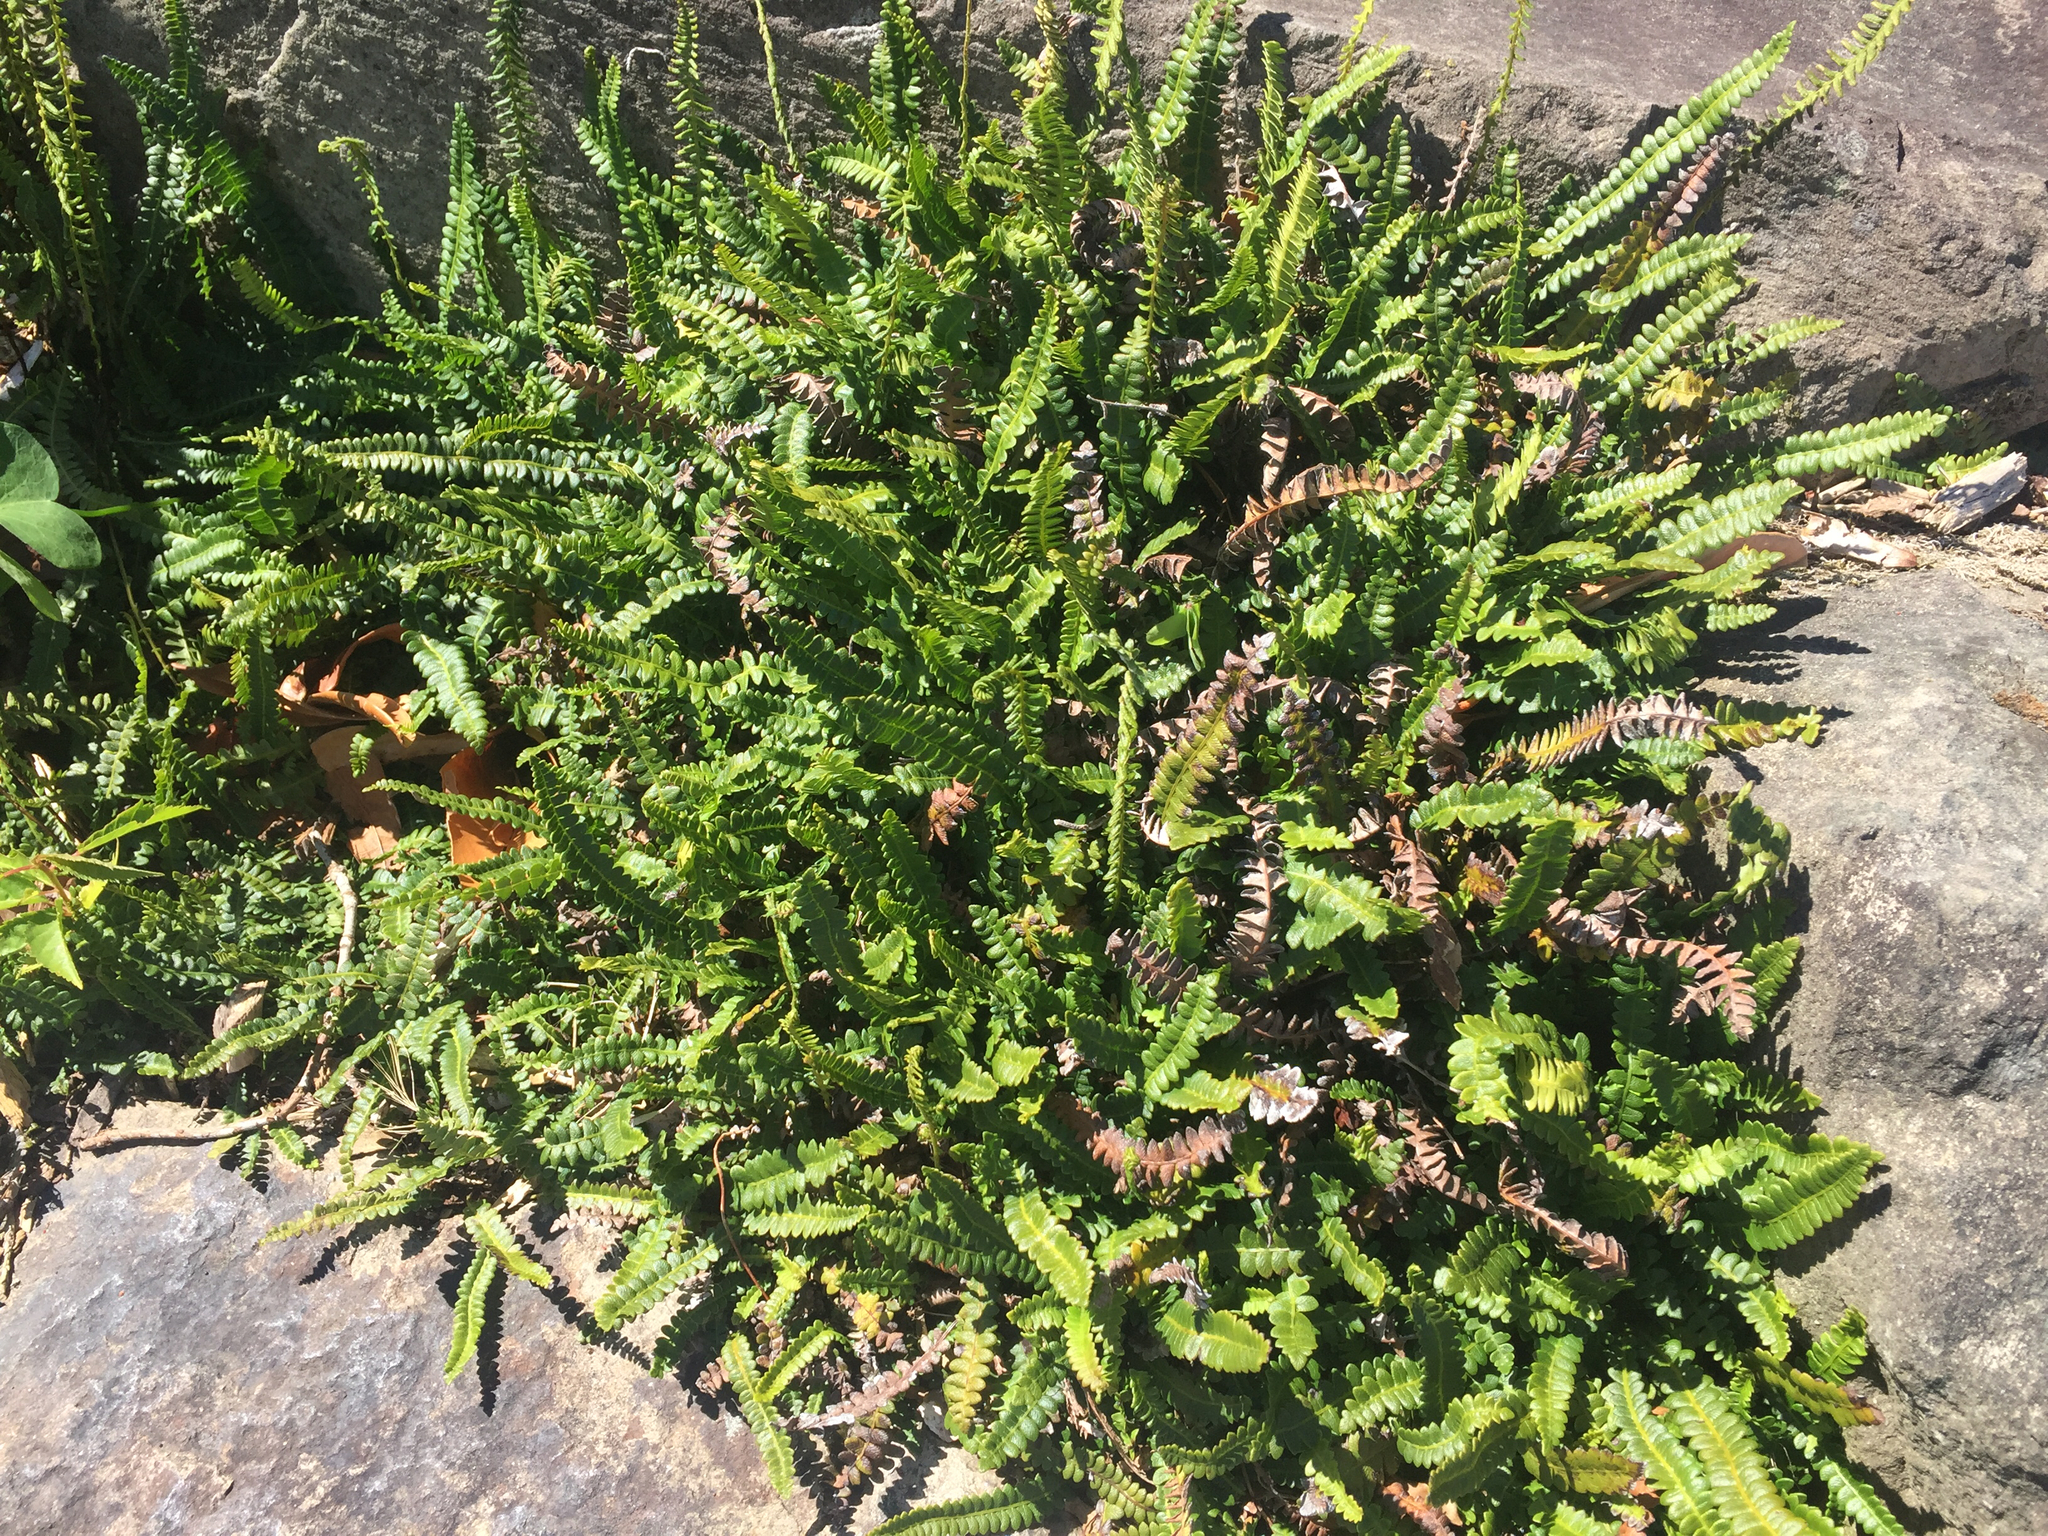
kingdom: Plantae
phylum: Tracheophyta
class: Polypodiopsida
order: Polypodiales
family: Blechnaceae
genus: Austroblechnum
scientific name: Austroblechnum penna-marina
